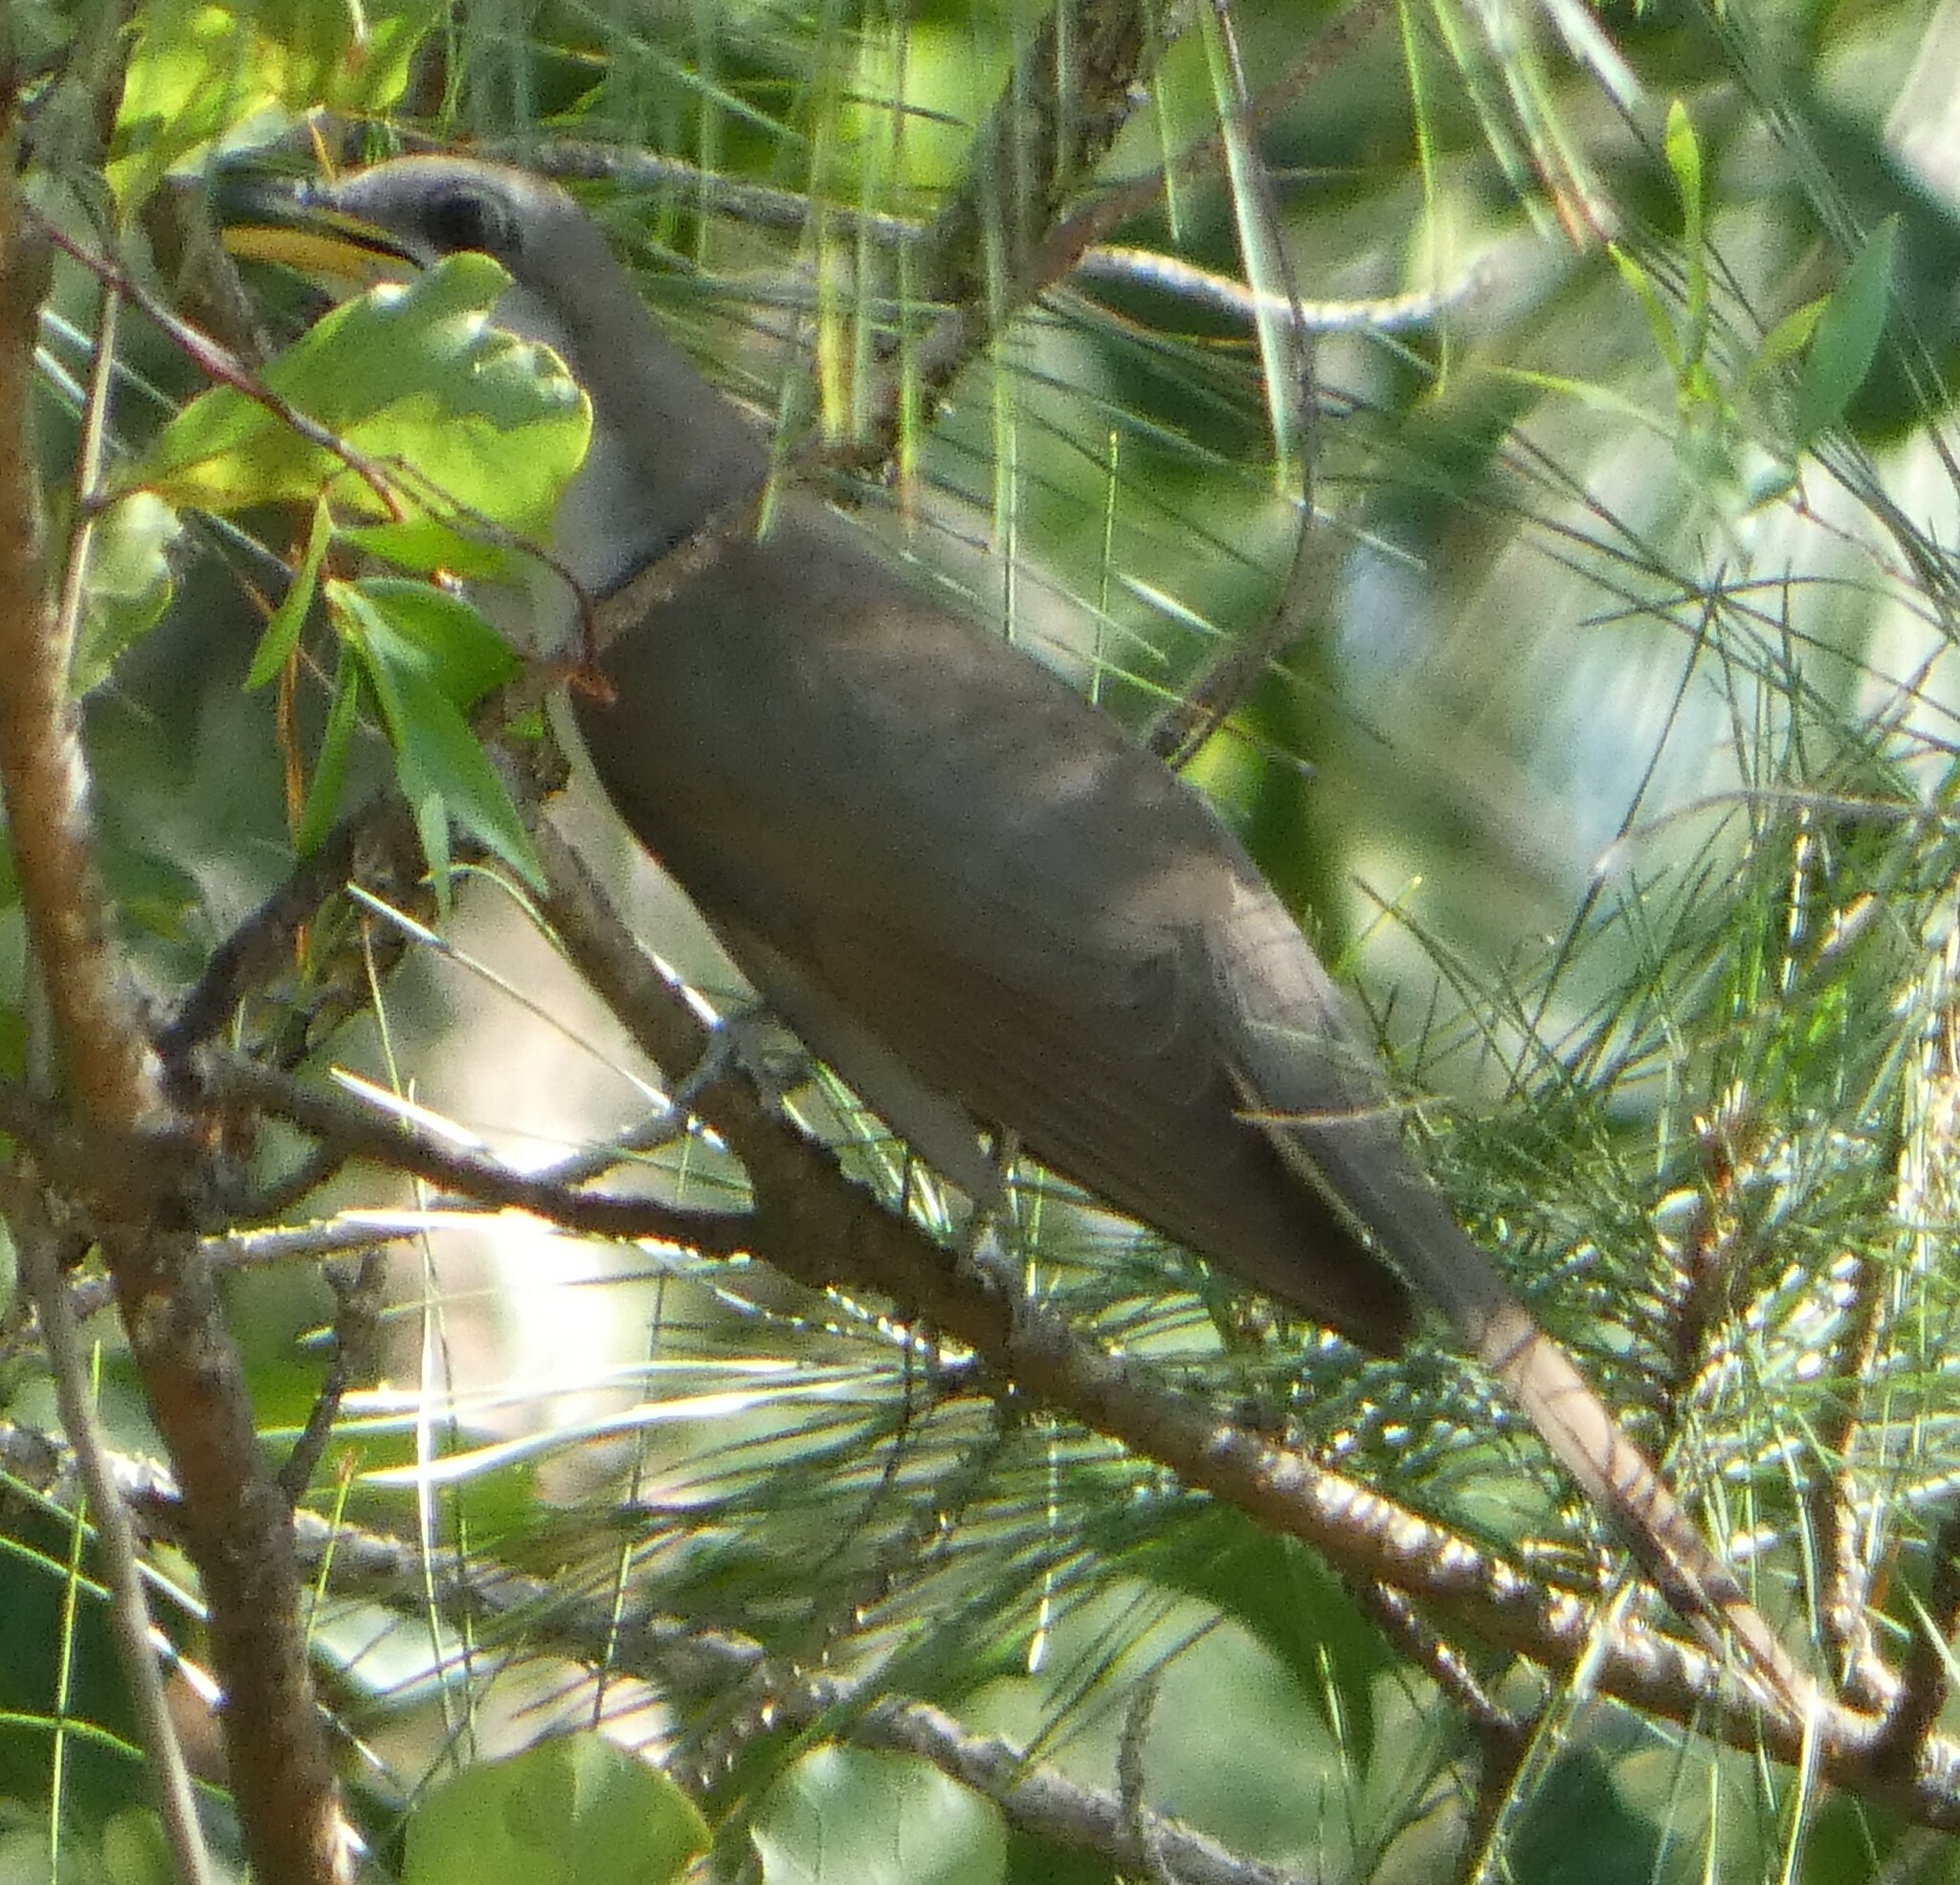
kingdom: Animalia
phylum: Chordata
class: Aves
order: Cuculiformes
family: Cuculidae
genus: Coccyzus
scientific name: Coccyzus americanus
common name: Yellow-billed cuckoo
